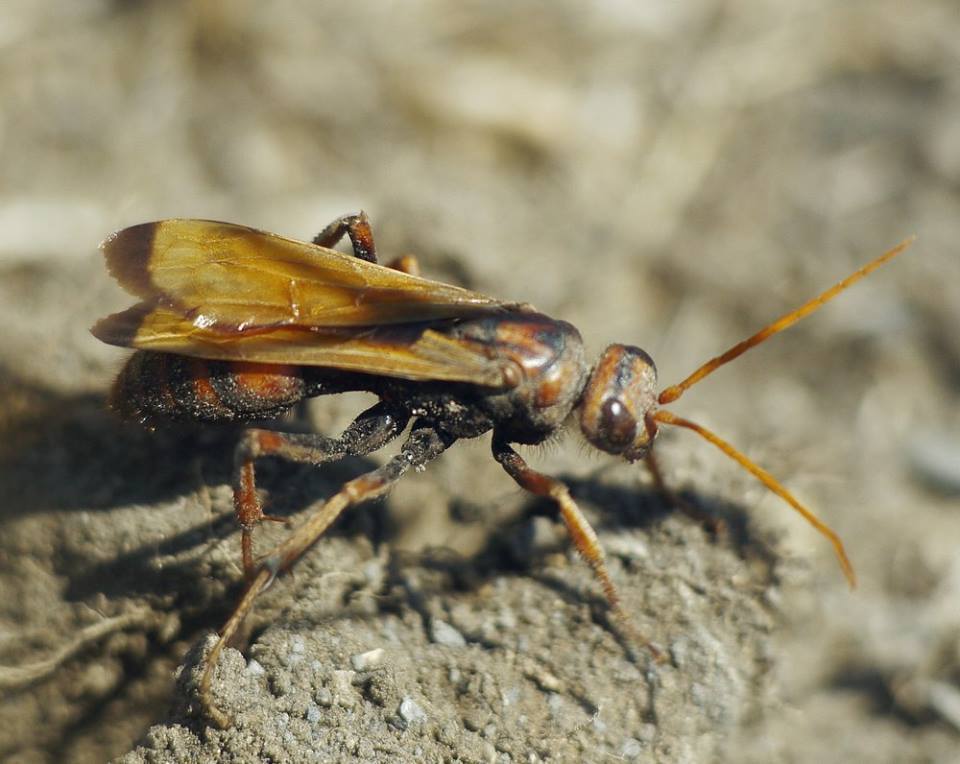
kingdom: Animalia
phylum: Arthropoda
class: Insecta
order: Hymenoptera
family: Pompilidae
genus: Cryptocheilus
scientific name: Cryptocheilus rubellus
